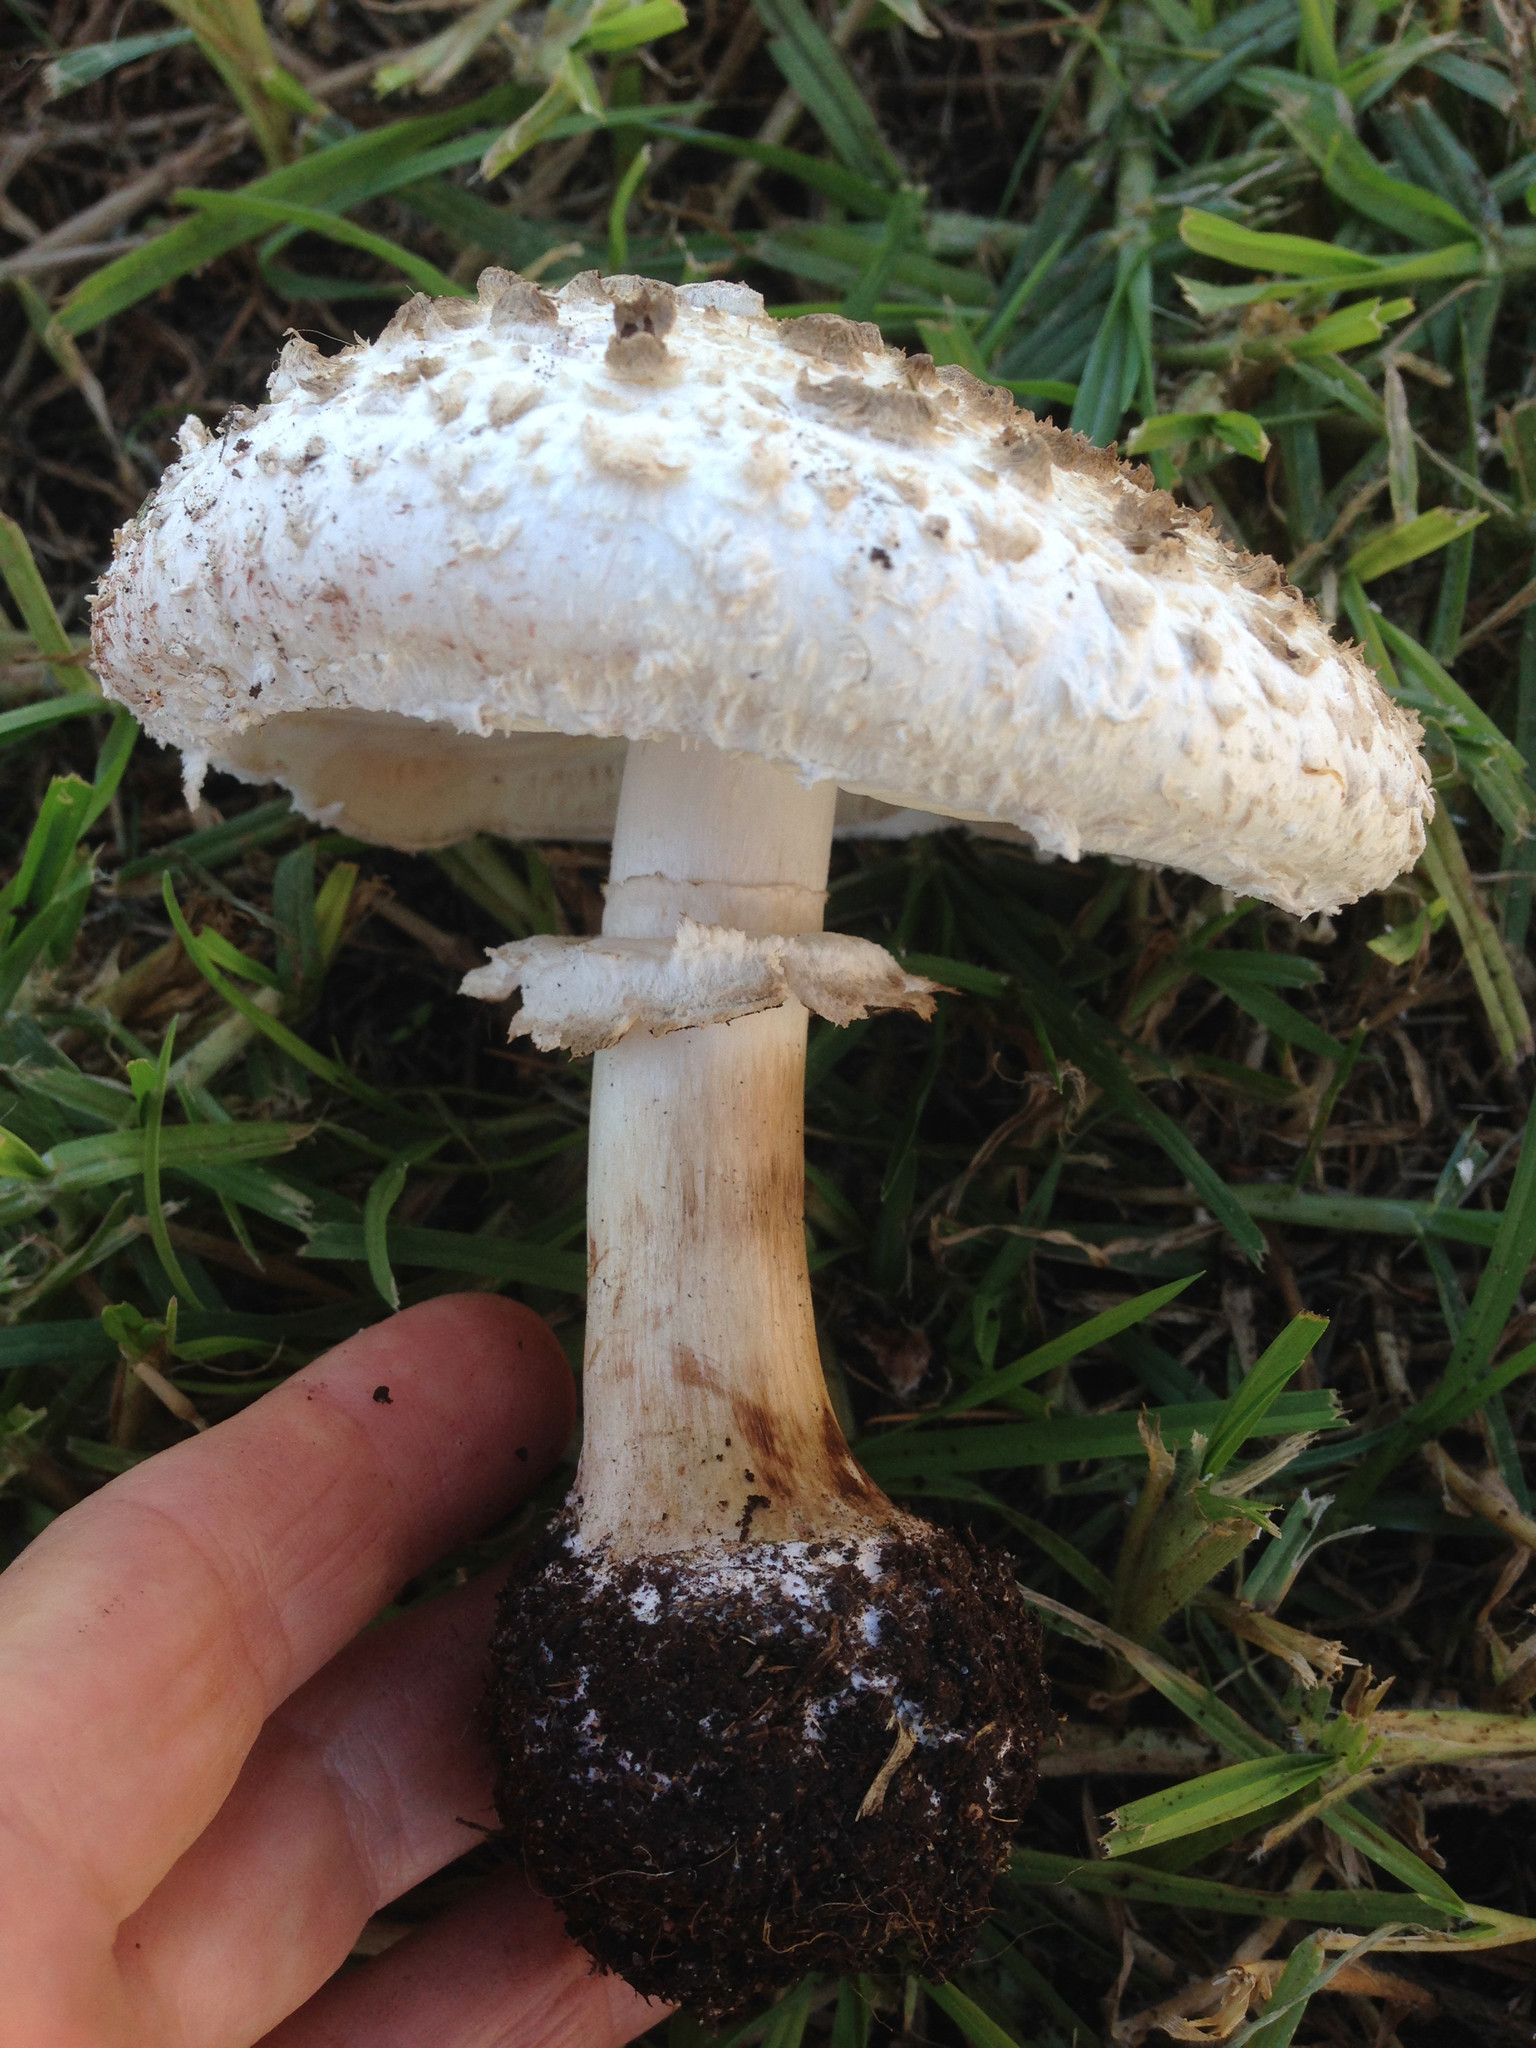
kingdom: Fungi
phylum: Basidiomycota
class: Agaricomycetes
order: Agaricales
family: Agaricaceae
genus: Chlorophyllum
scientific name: Chlorophyllum brunneum
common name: Brown parasol
